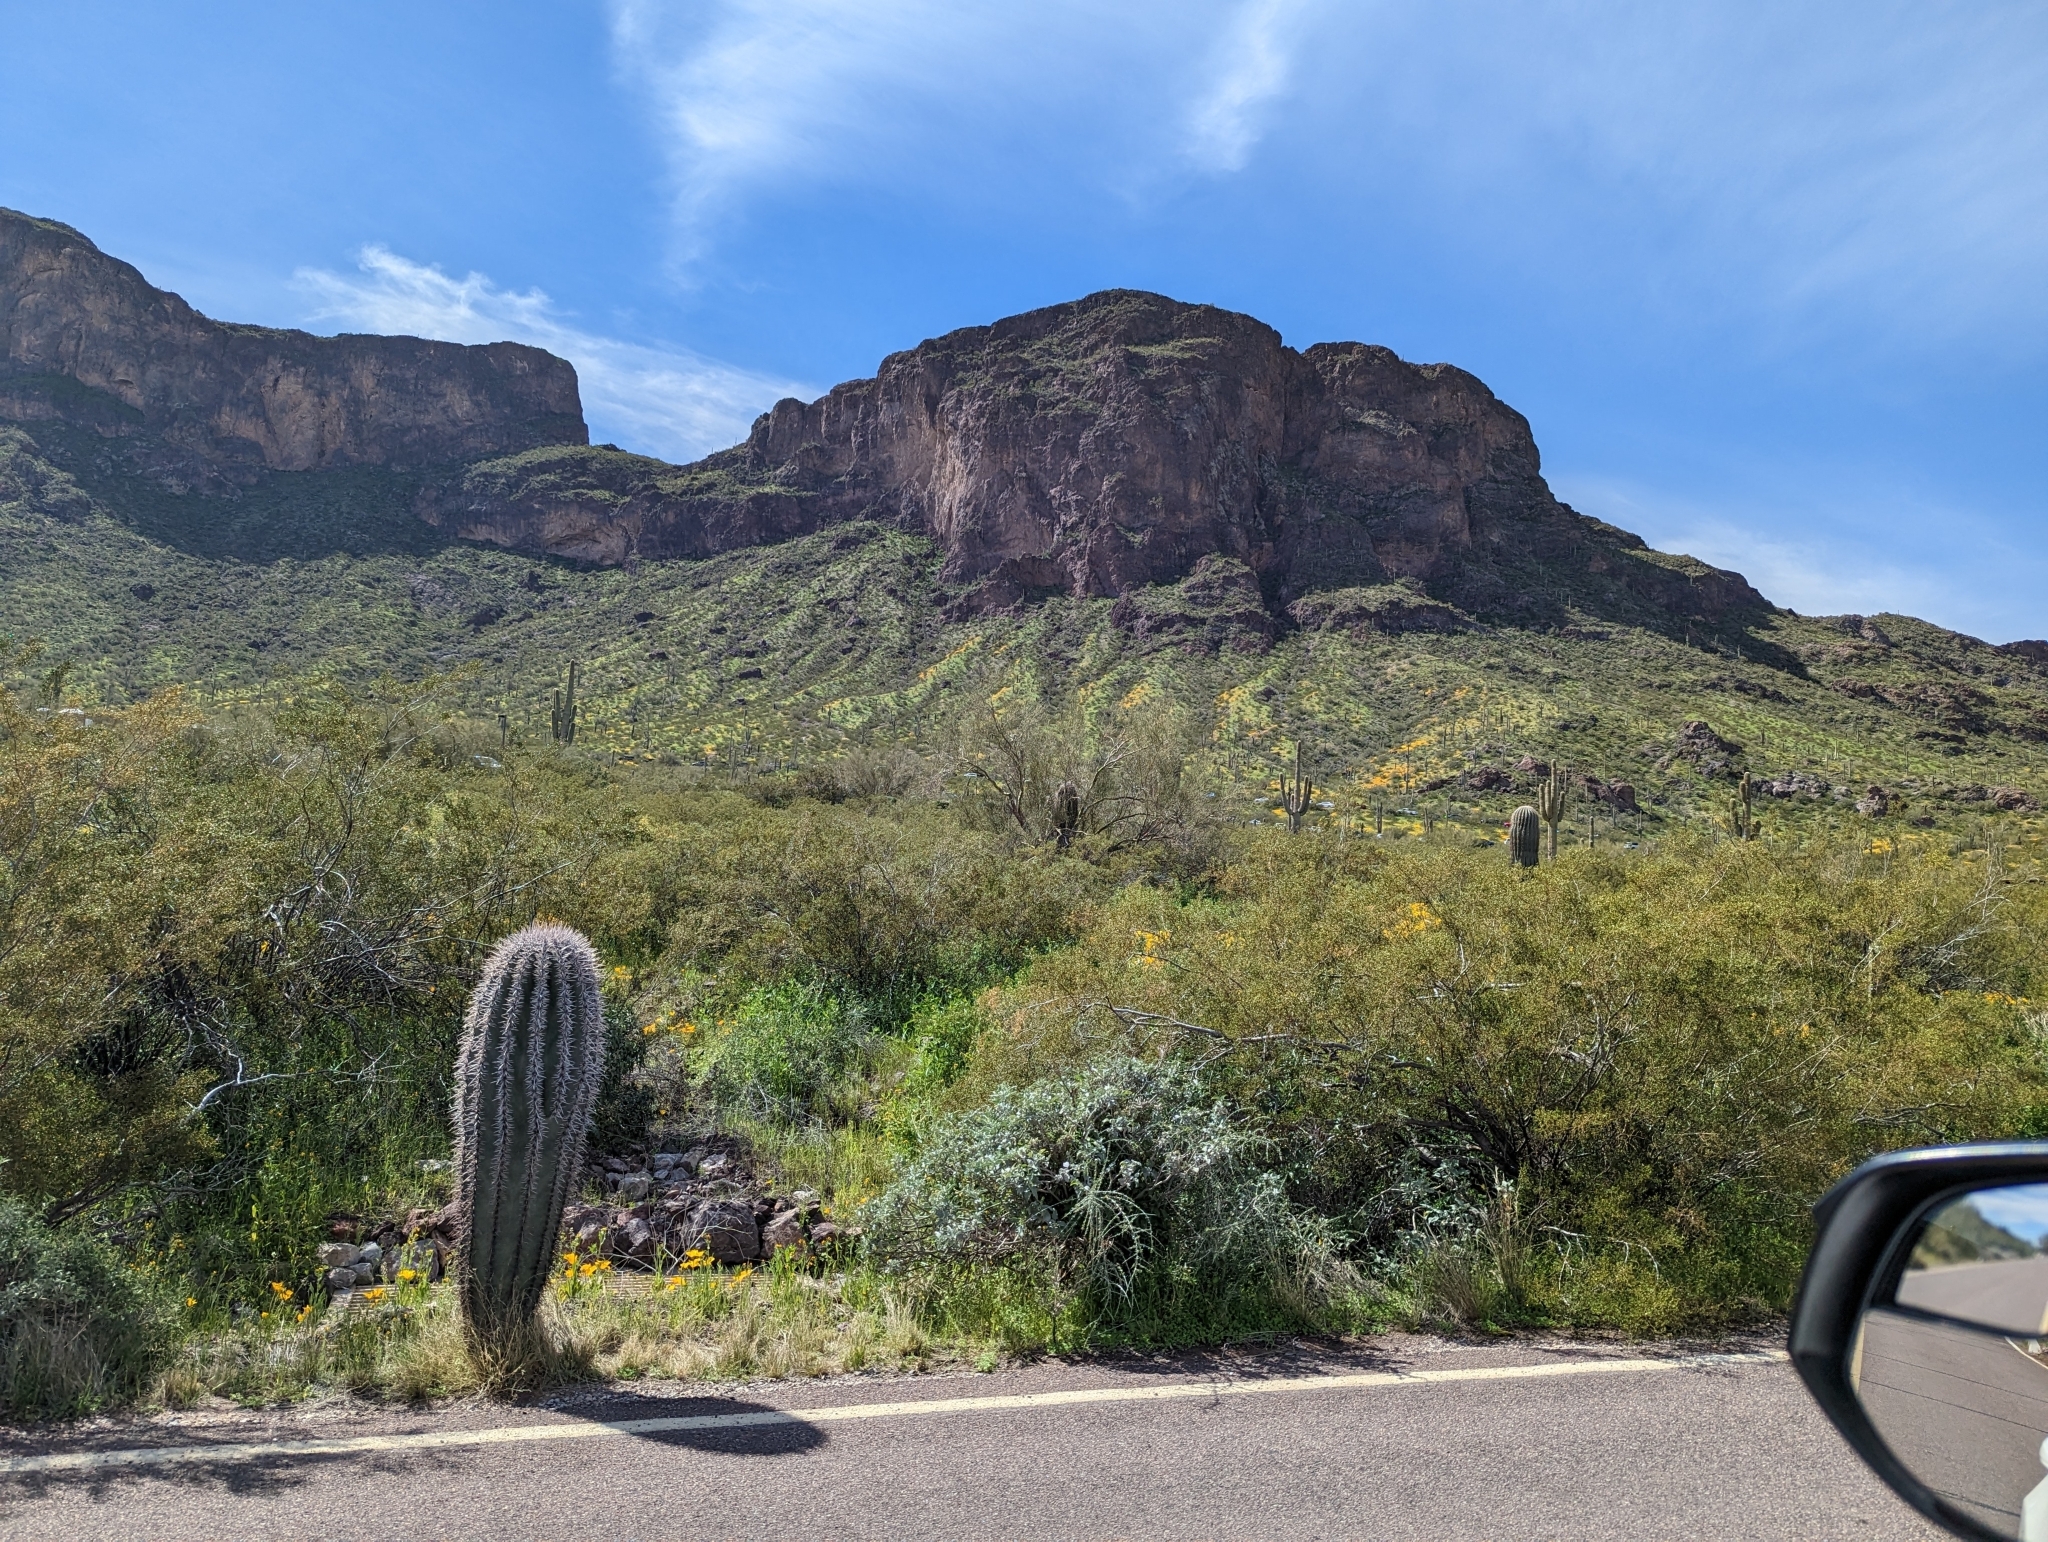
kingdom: Plantae
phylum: Tracheophyta
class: Magnoliopsida
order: Caryophyllales
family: Cactaceae
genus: Carnegiea
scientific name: Carnegiea gigantea
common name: Saguaro
